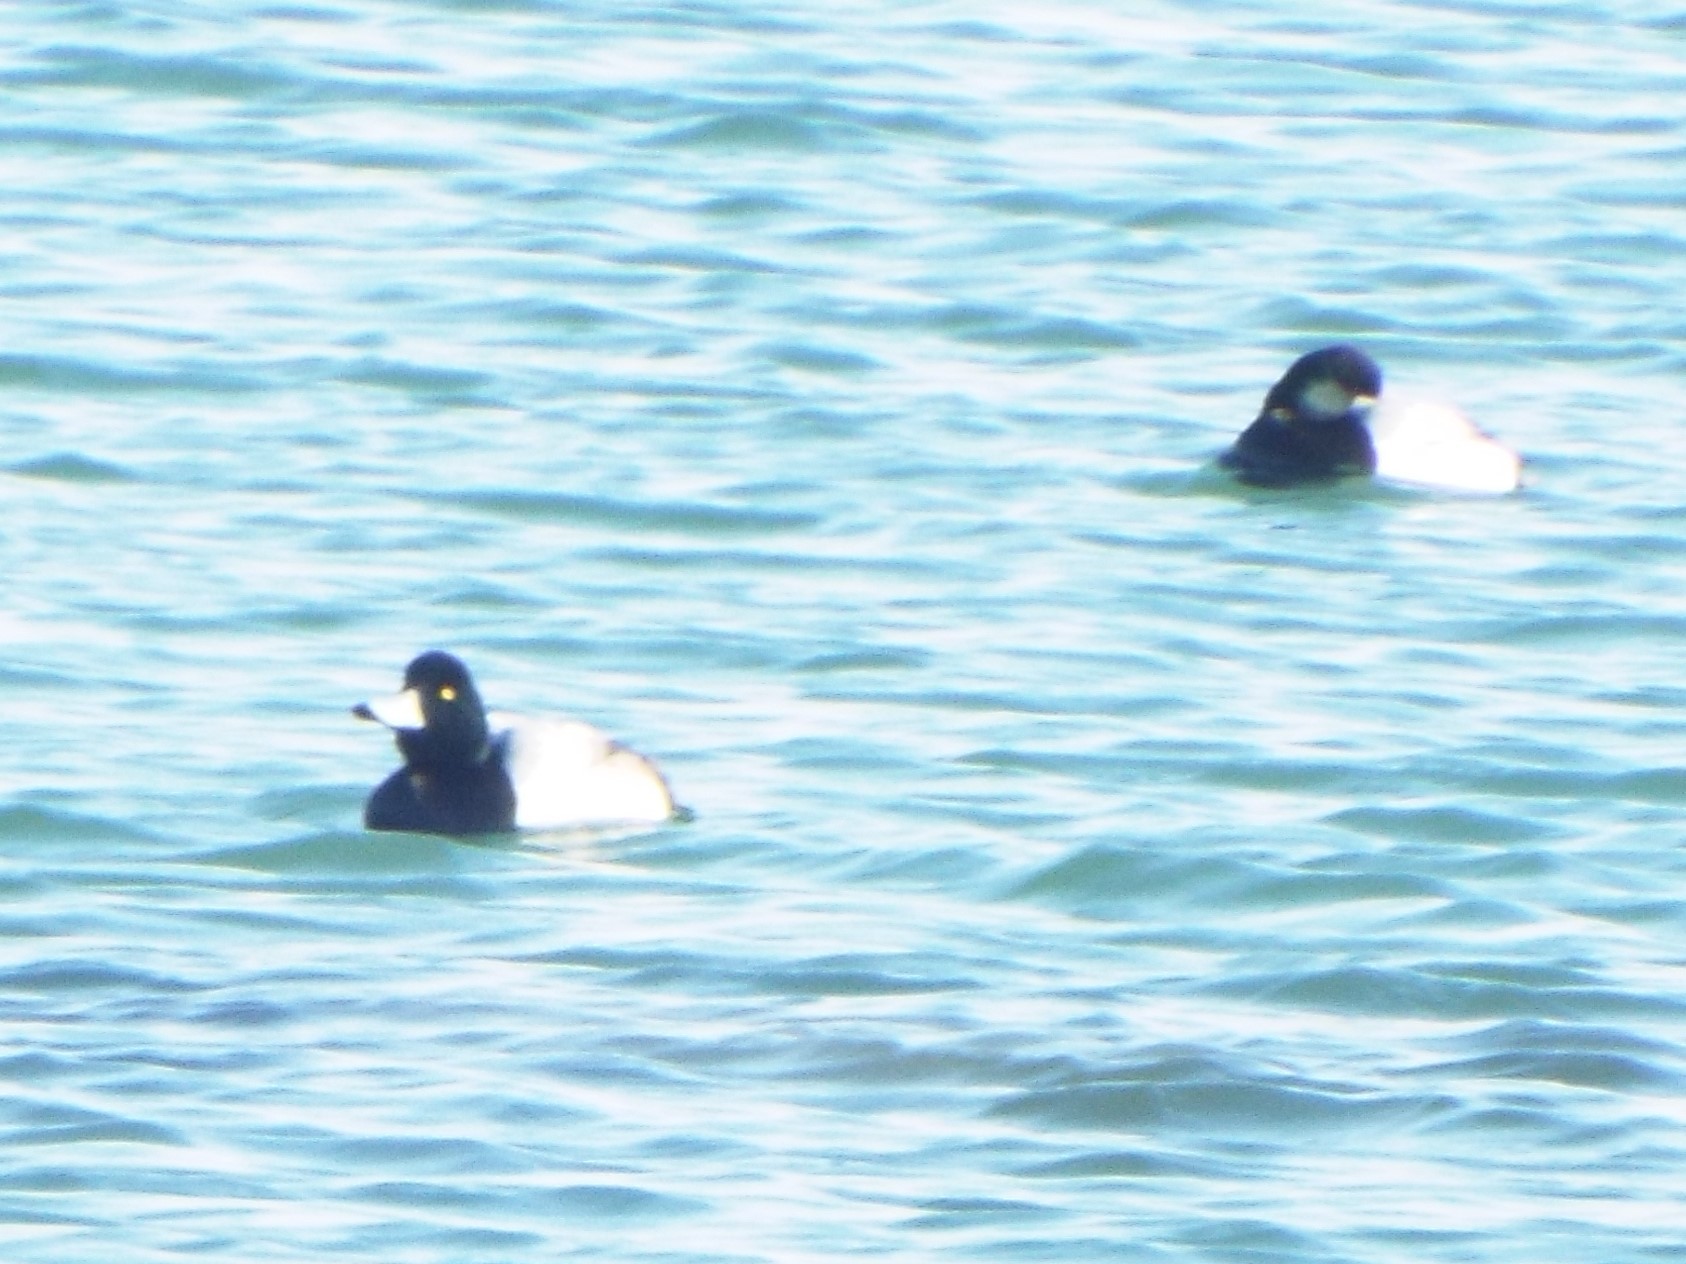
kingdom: Animalia
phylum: Chordata
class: Aves
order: Anseriformes
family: Anatidae
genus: Aythya
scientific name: Aythya marila
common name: Greater scaup
